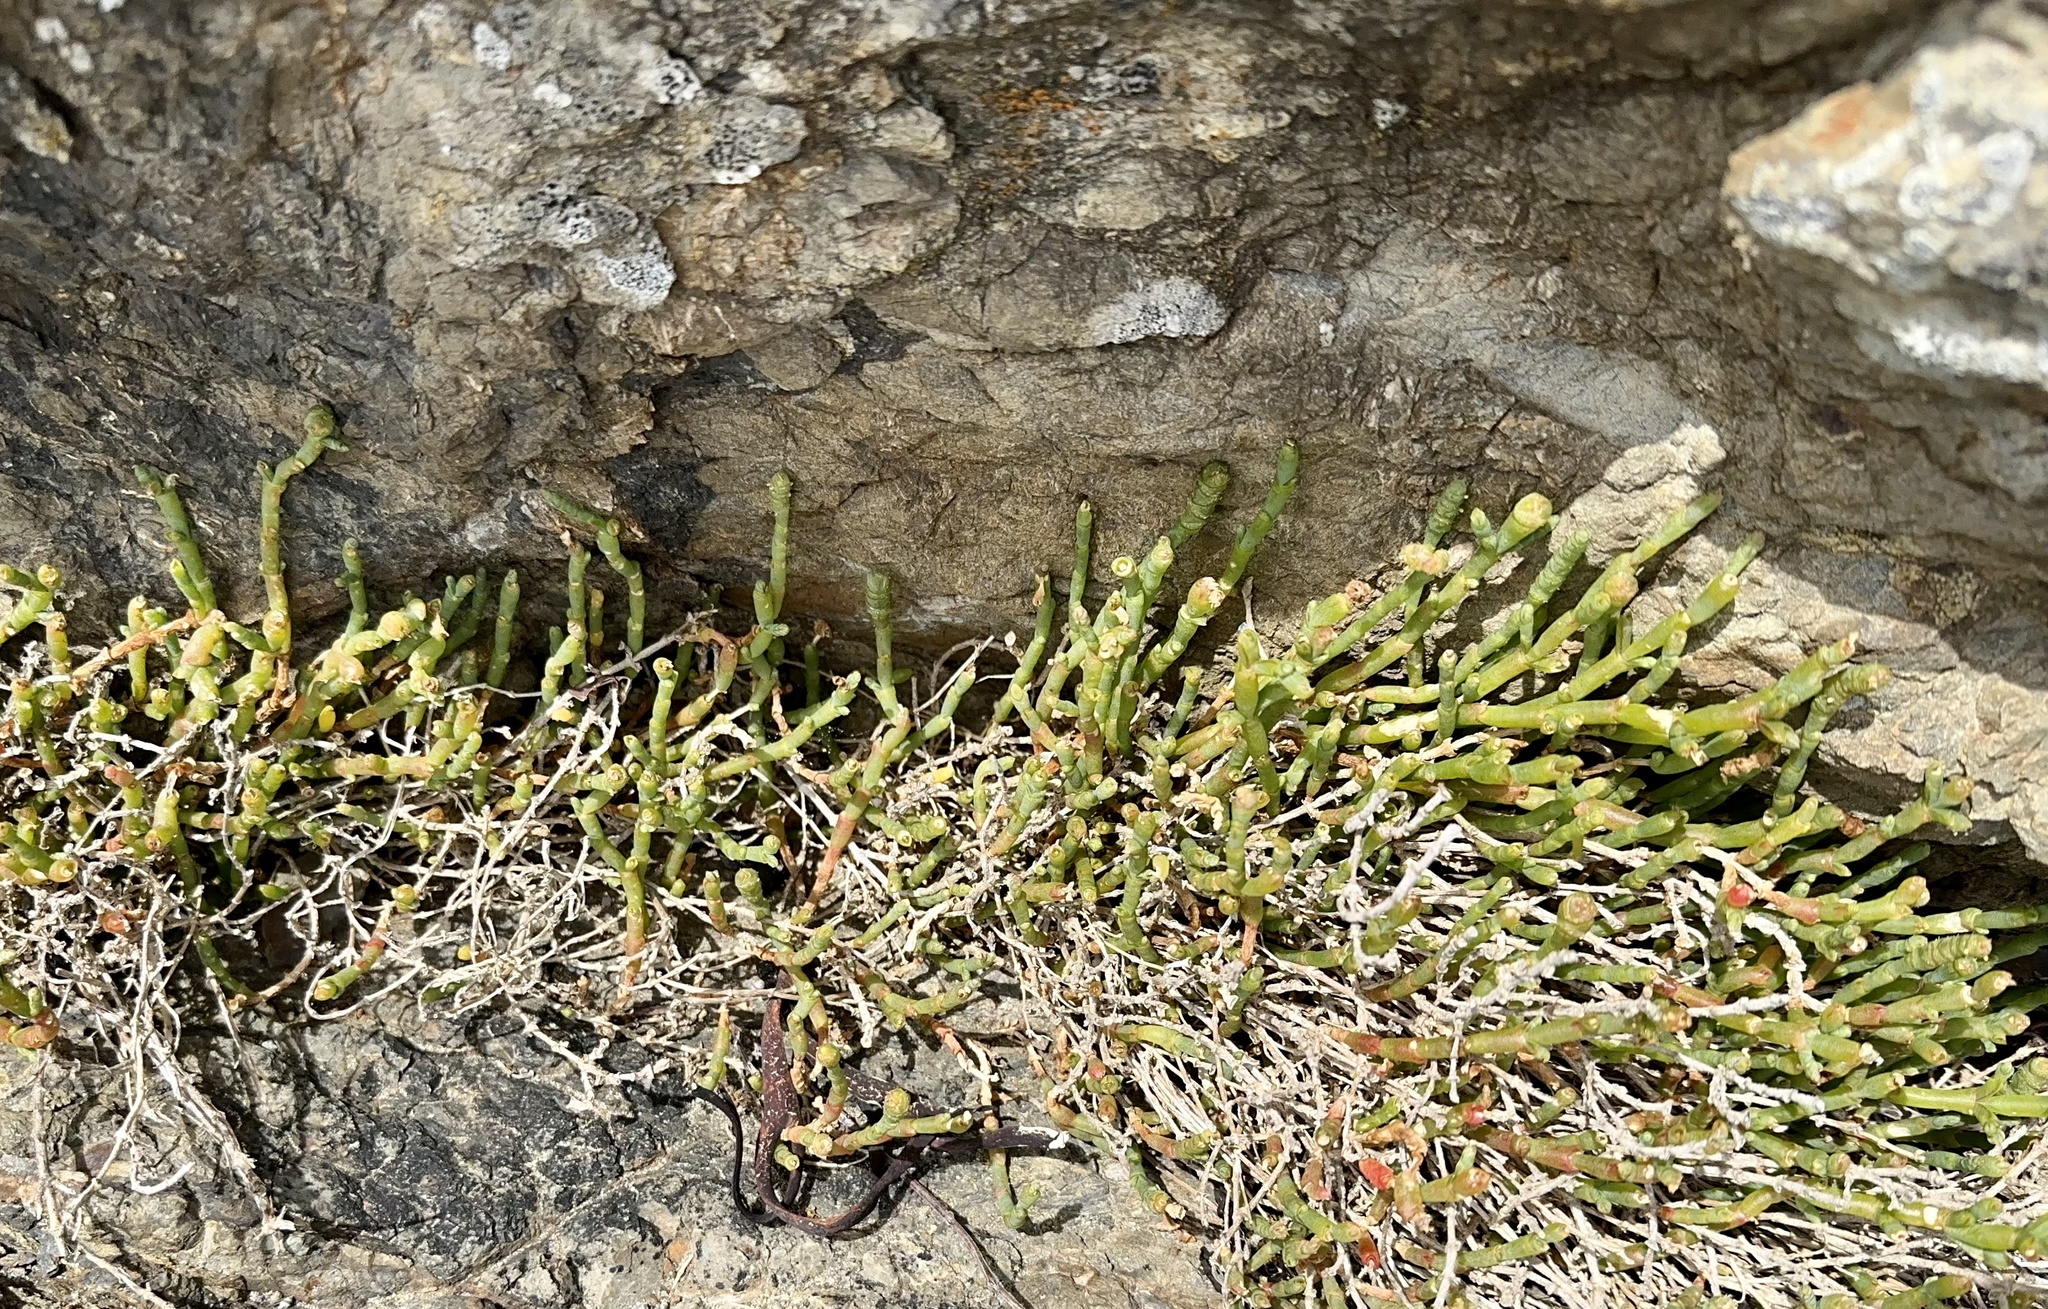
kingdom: Plantae
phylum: Tracheophyta
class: Magnoliopsida
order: Caryophyllales
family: Amaranthaceae
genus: Salicornia
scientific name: Salicornia quinqueflora
